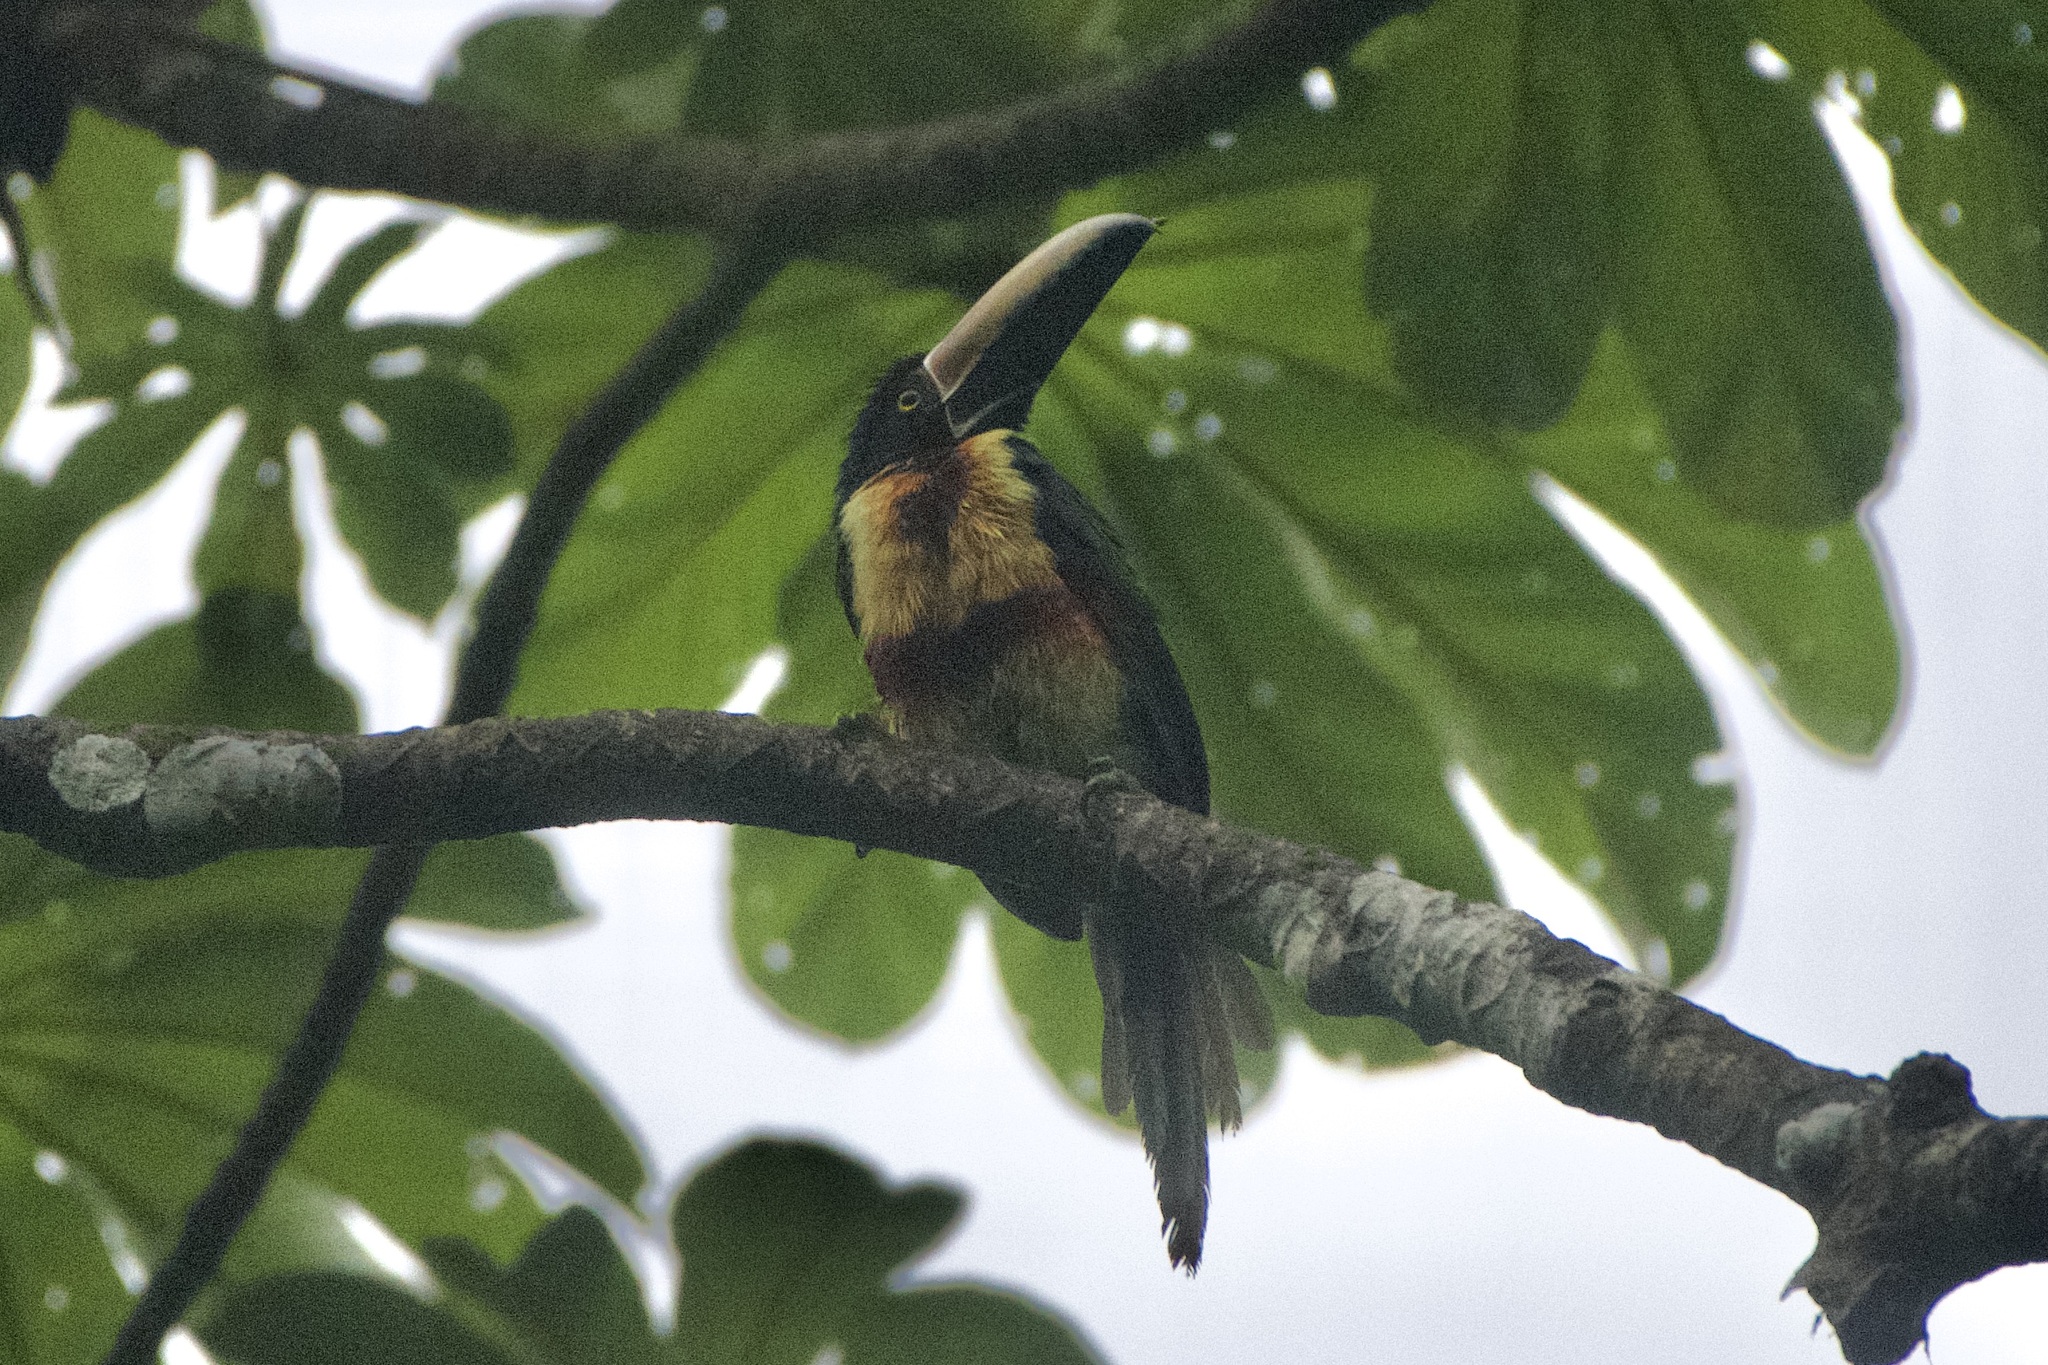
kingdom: Animalia
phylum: Chordata
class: Aves
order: Piciformes
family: Ramphastidae
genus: Pteroglossus
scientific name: Pteroglossus torquatus
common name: Collared aracari
